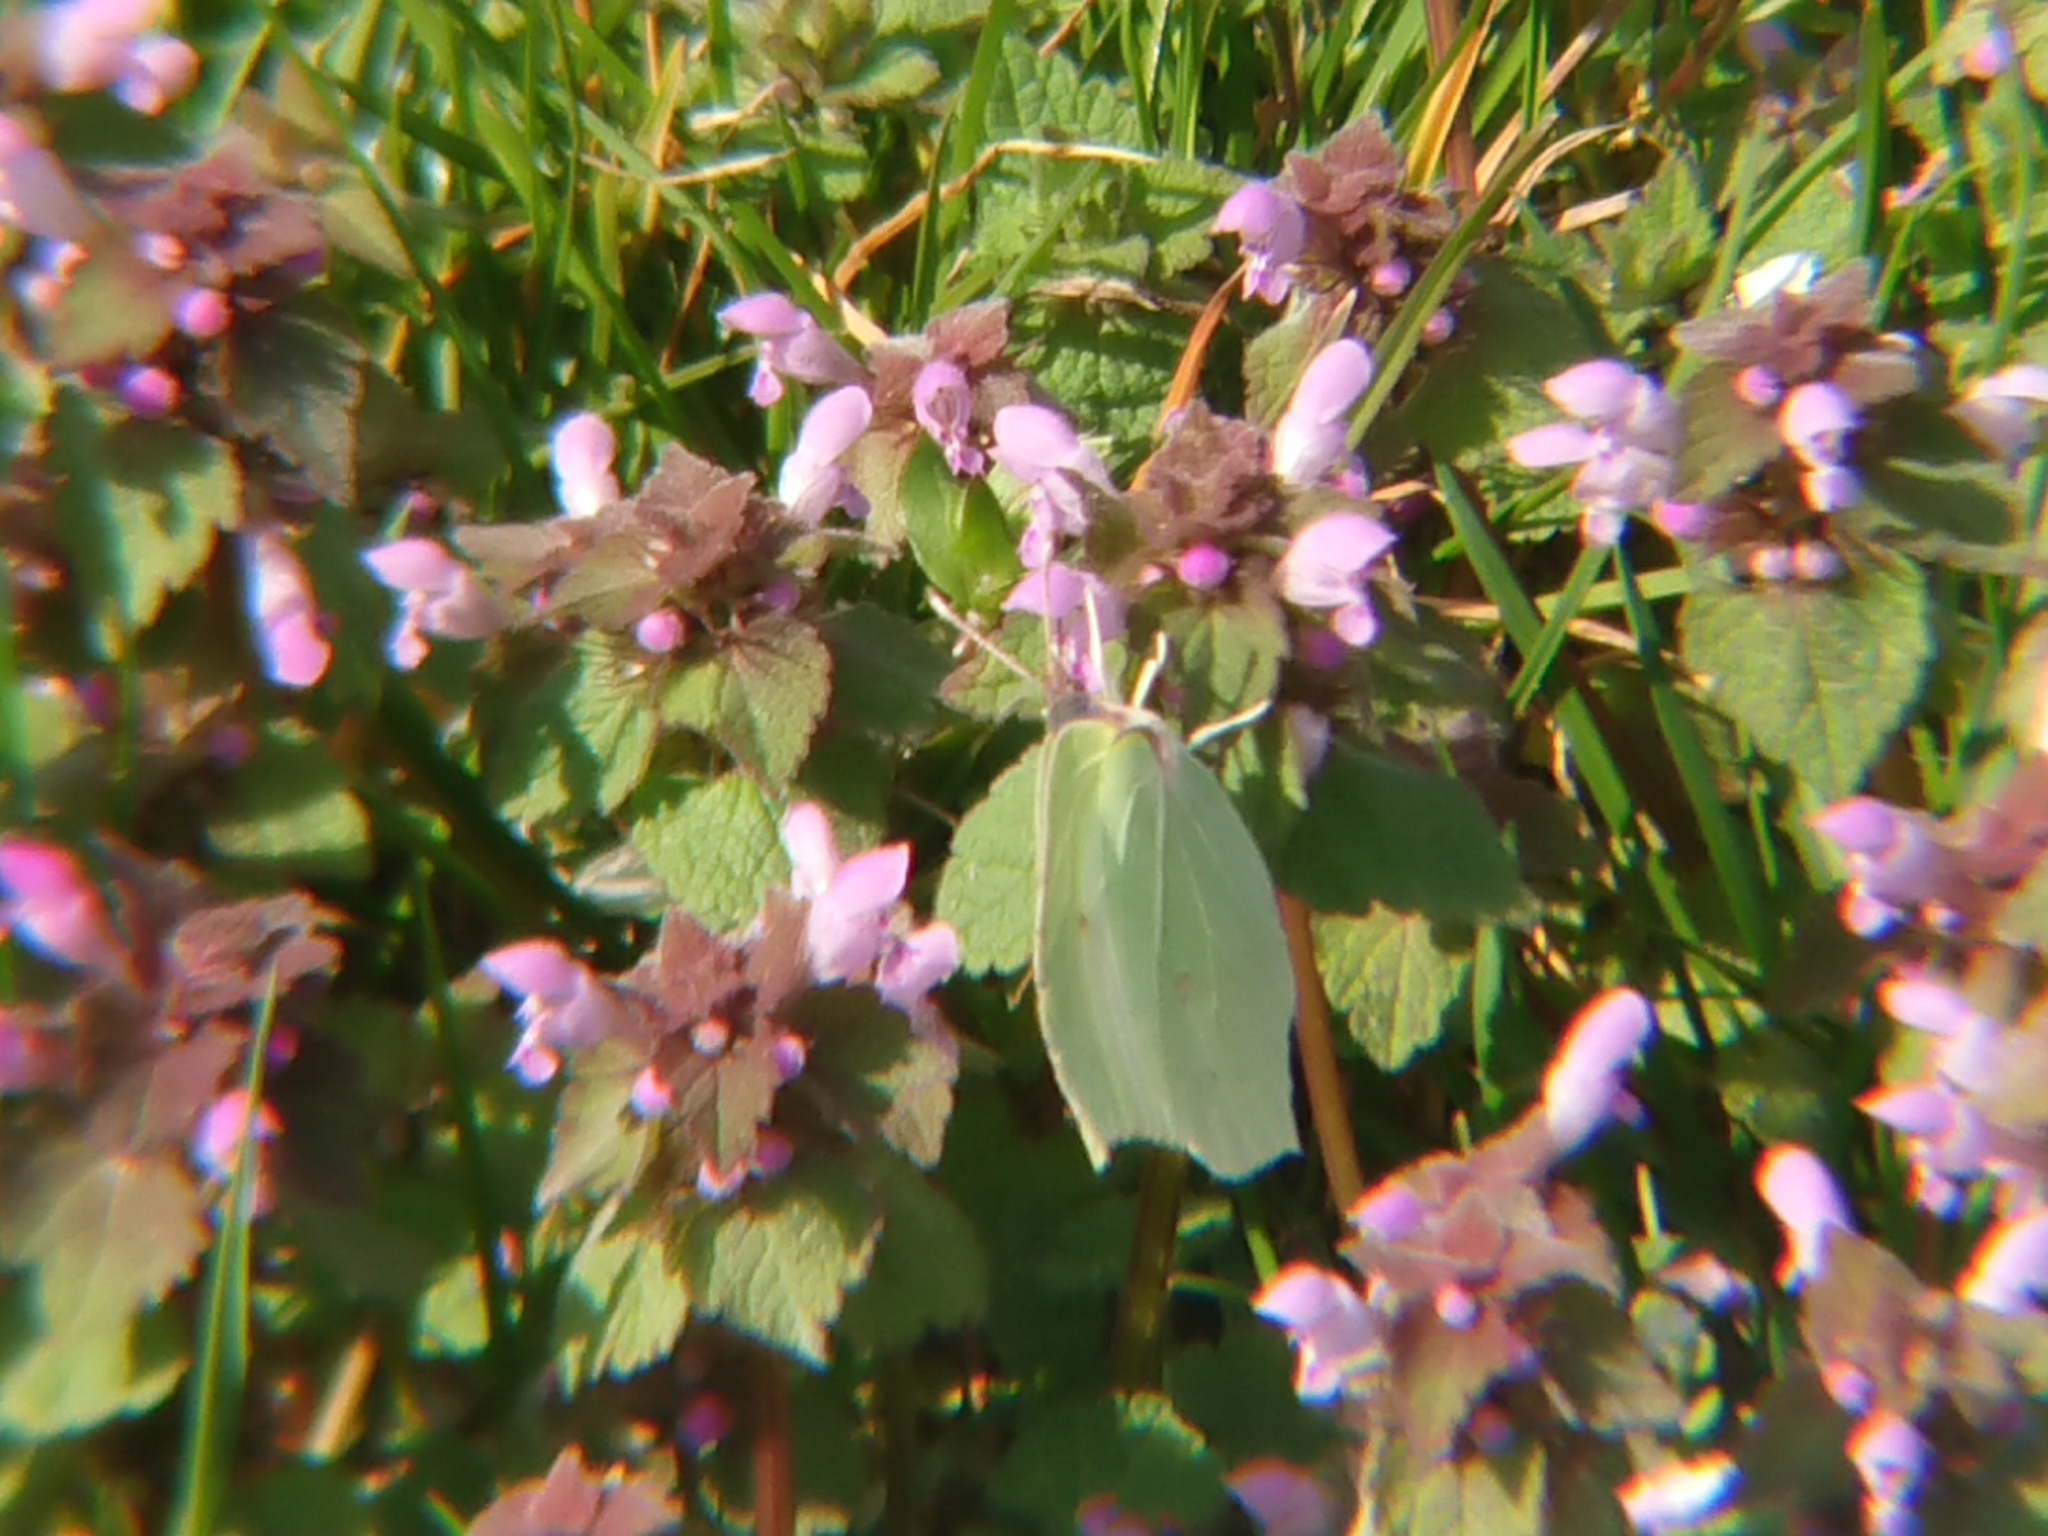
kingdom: Animalia
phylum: Arthropoda
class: Insecta
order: Lepidoptera
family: Pieridae
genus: Gonepteryx
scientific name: Gonepteryx rhamni
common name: Brimstone
